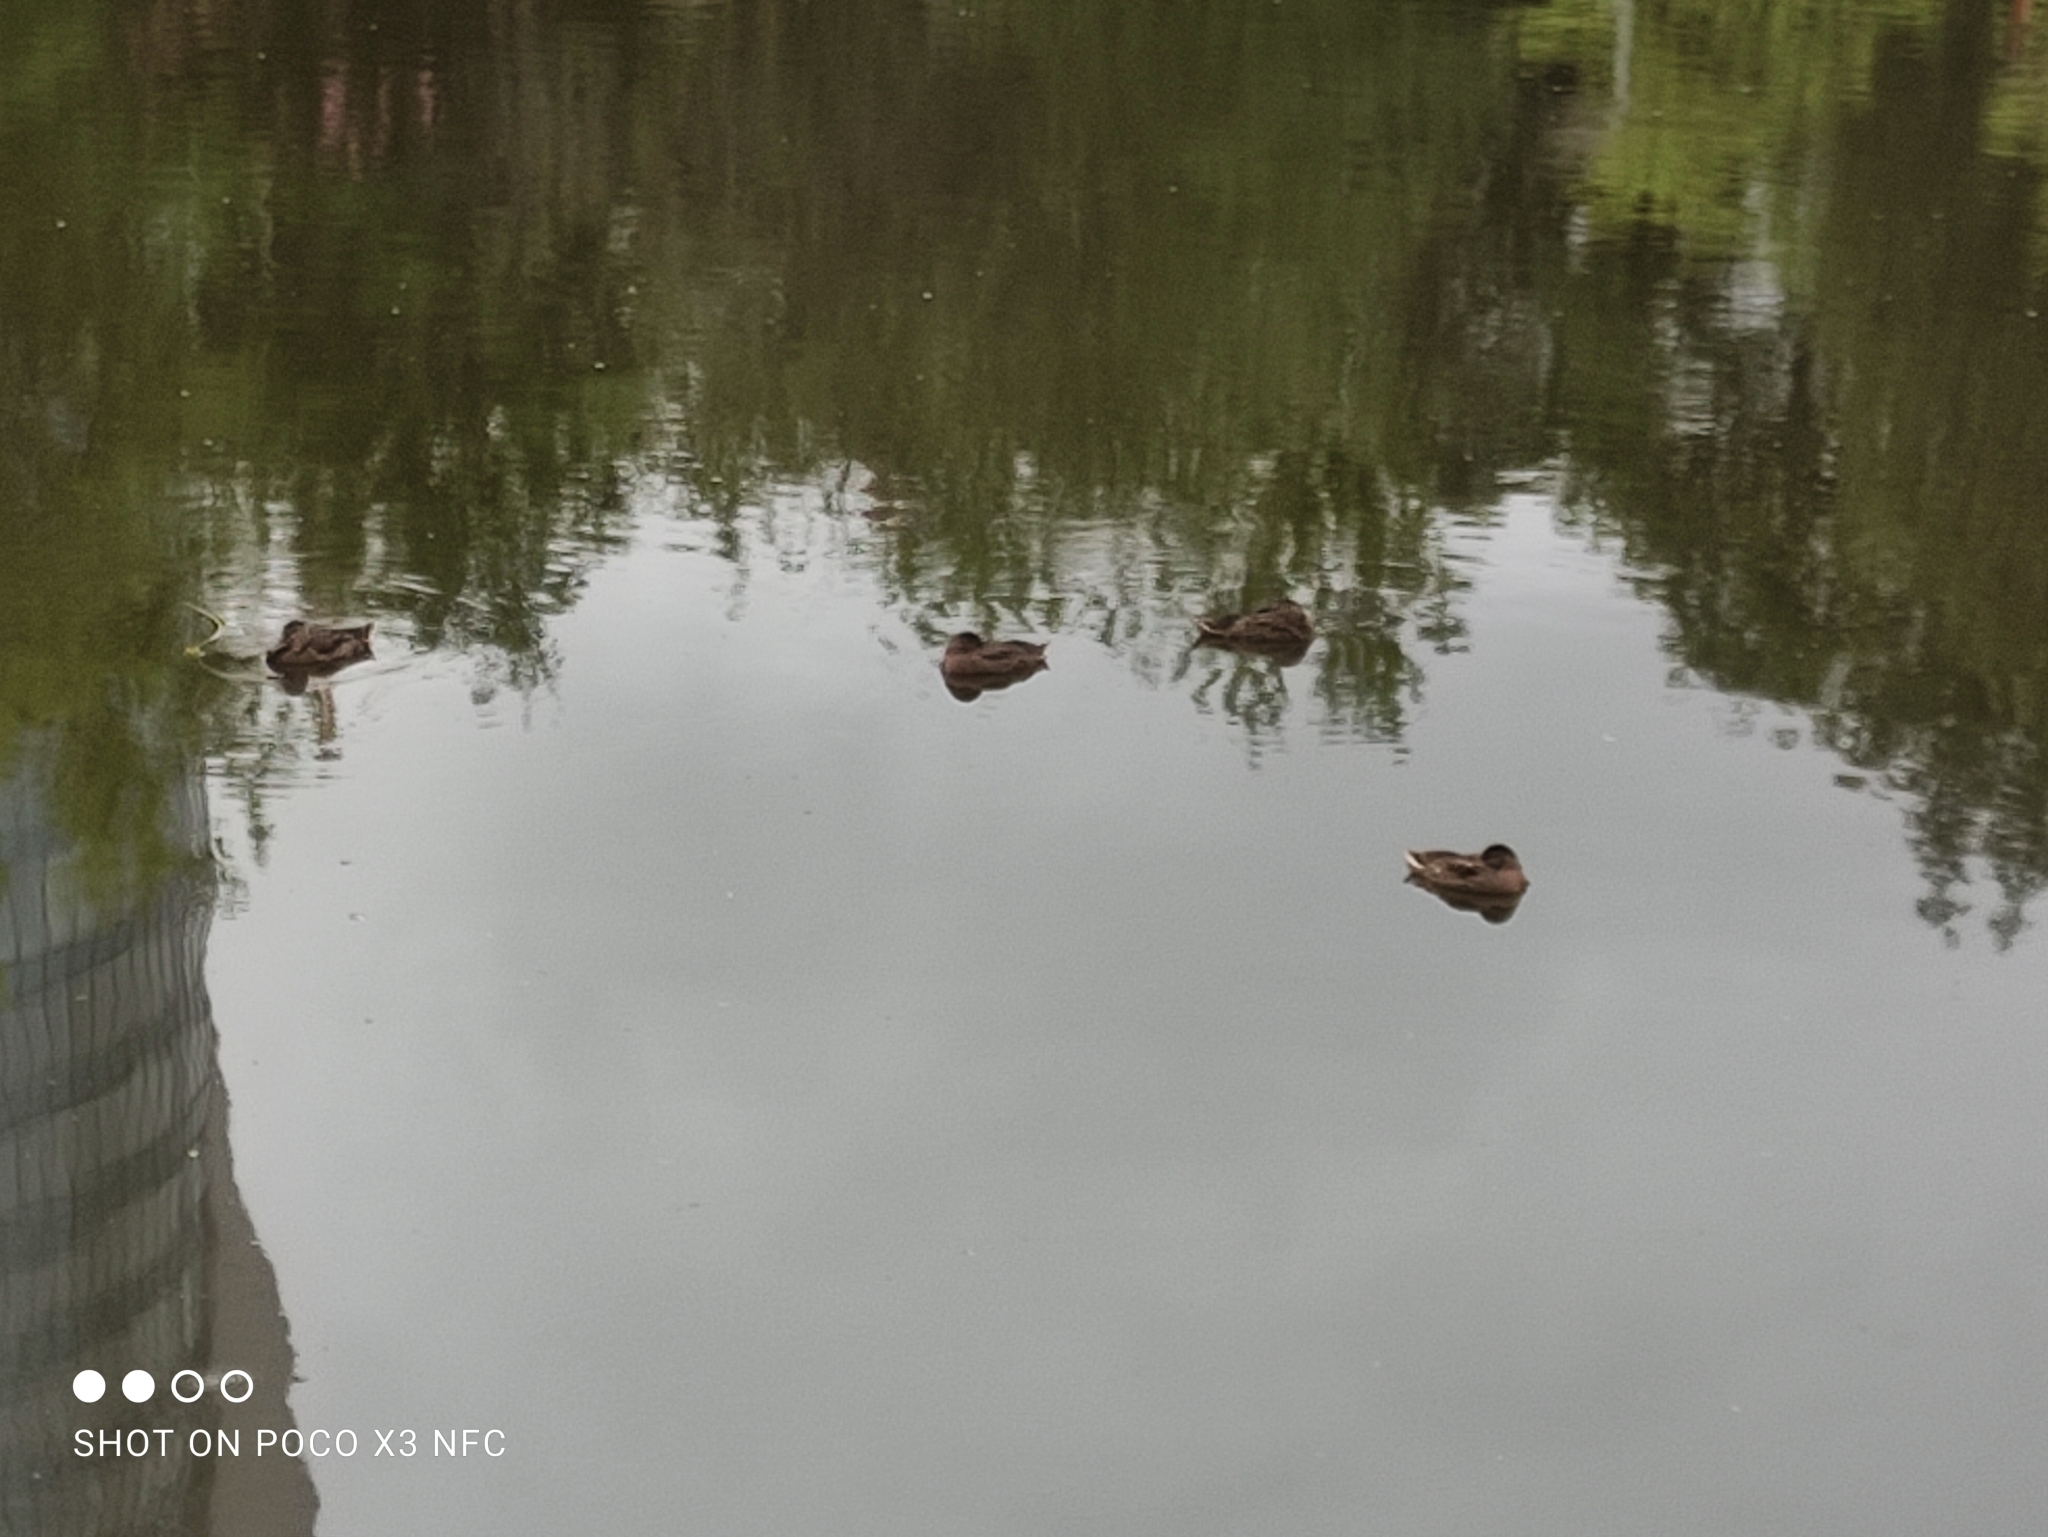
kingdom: Animalia
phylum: Chordata
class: Aves
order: Anseriformes
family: Anatidae
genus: Anas
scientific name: Anas platyrhynchos
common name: Mallard
